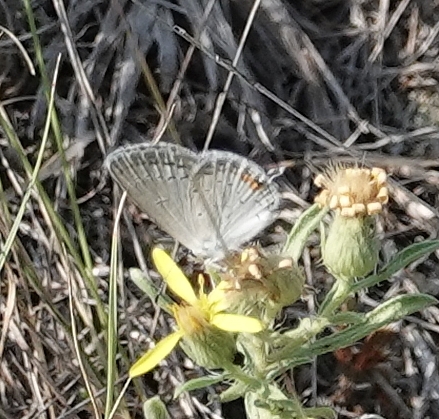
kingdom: Animalia
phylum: Arthropoda
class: Insecta
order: Lepidoptera
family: Lycaenidae
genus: Elkalyce
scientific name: Elkalyce comyntas
